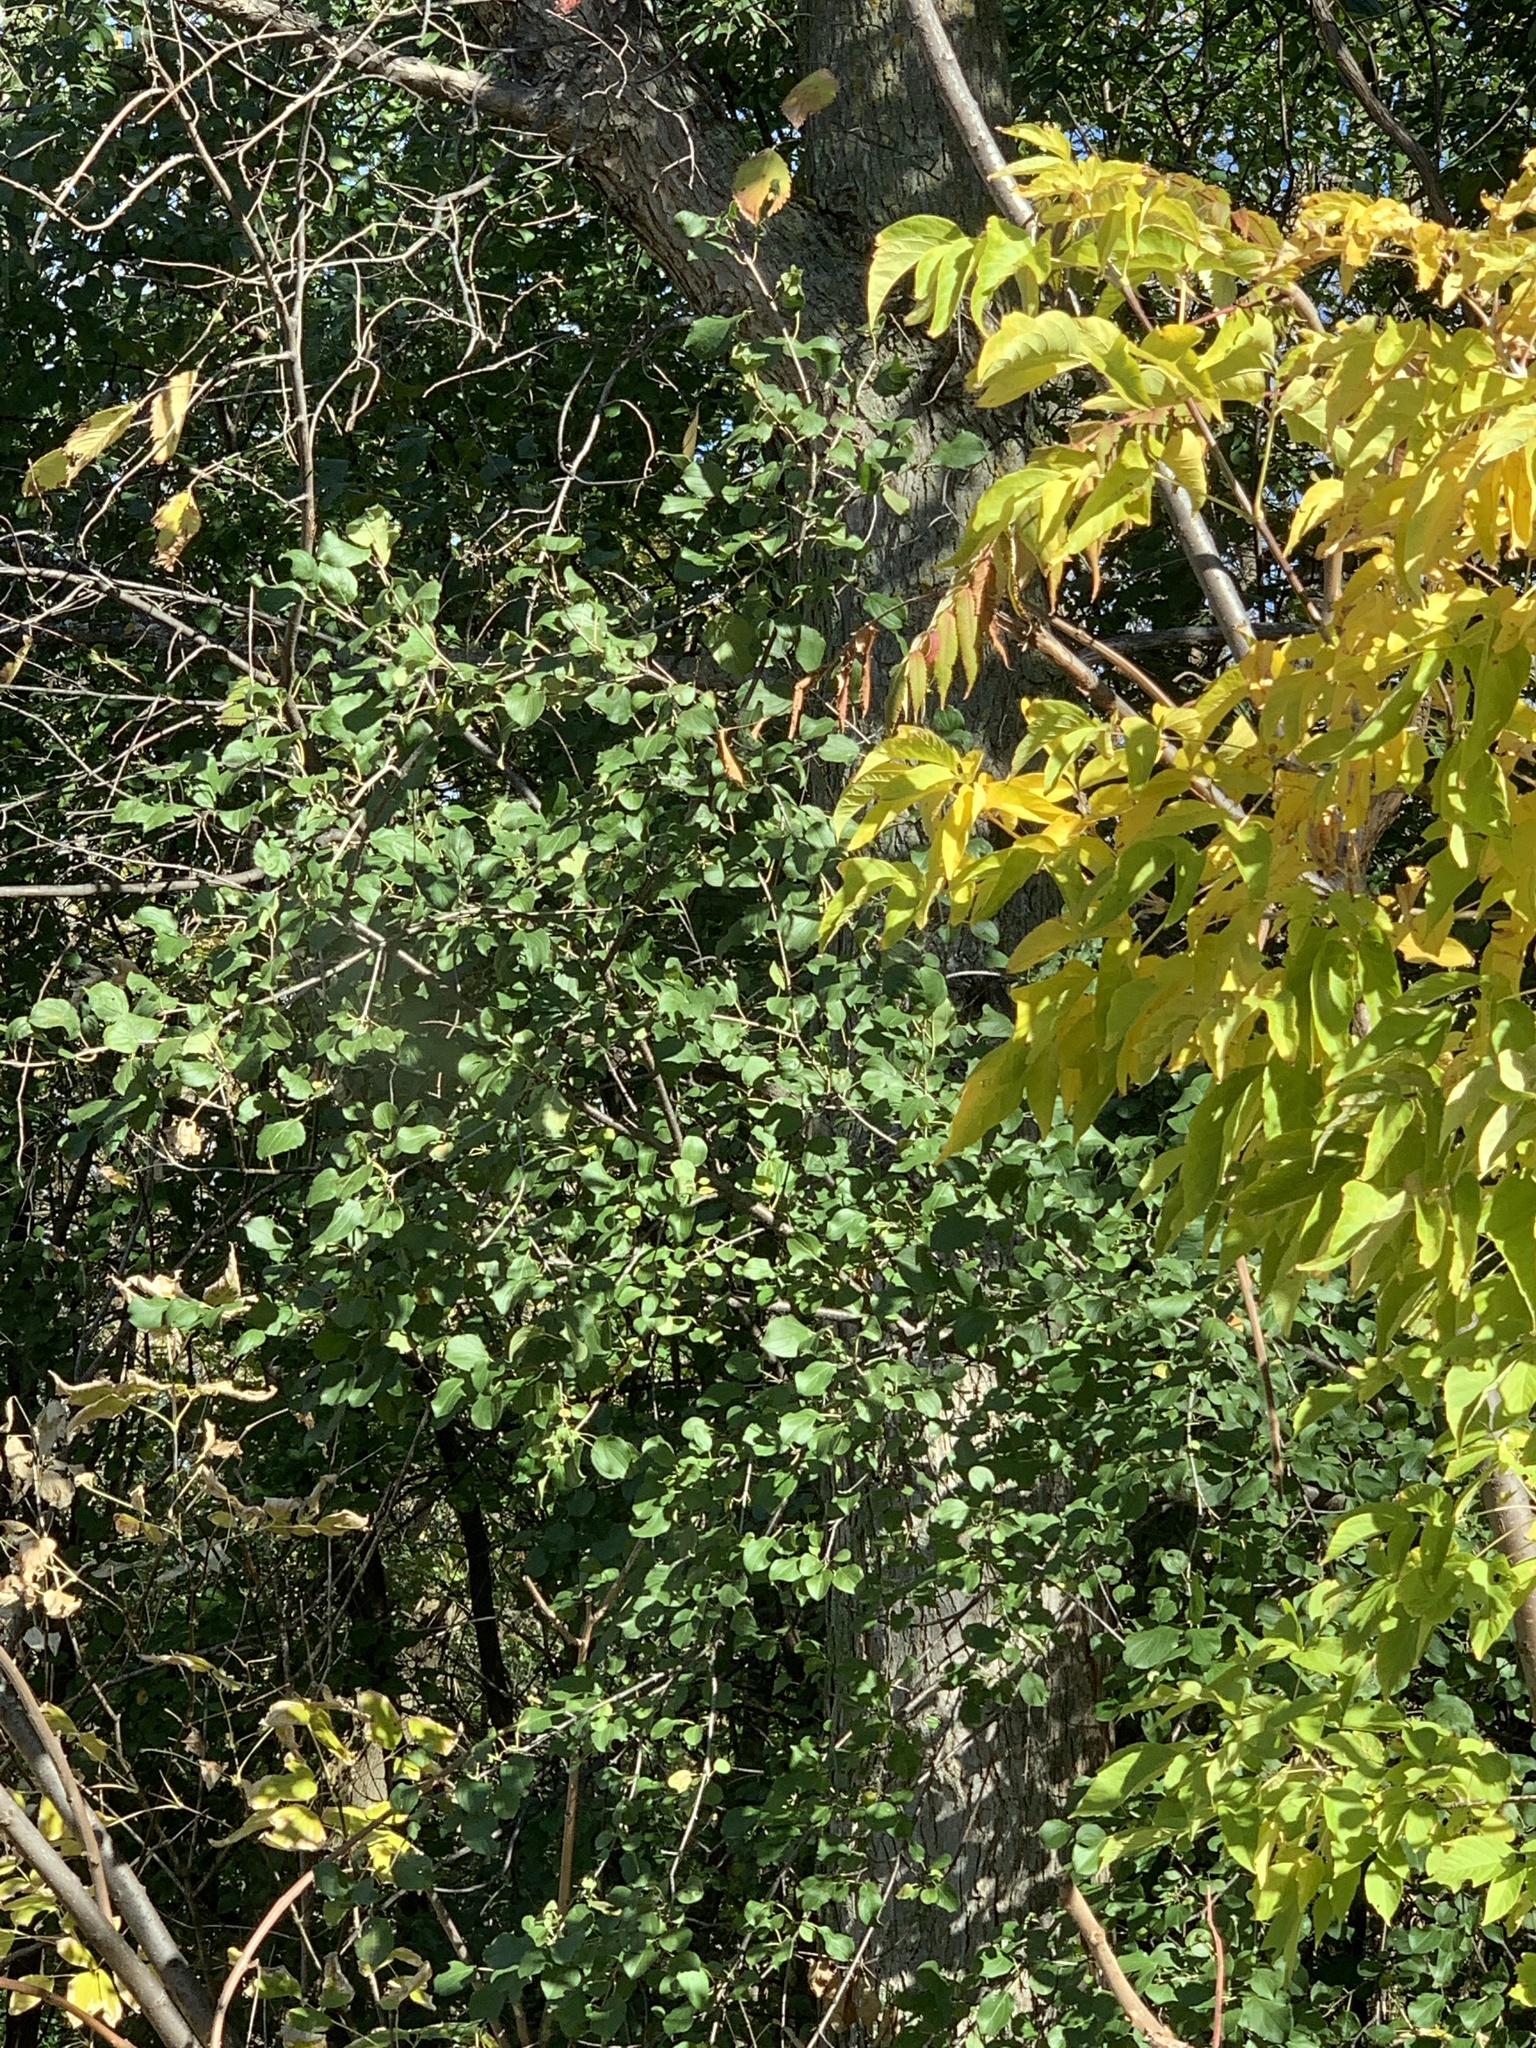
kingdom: Plantae
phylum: Tracheophyta
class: Magnoliopsida
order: Rosales
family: Rhamnaceae
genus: Rhamnus
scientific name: Rhamnus cathartica
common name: Common buckthorn
